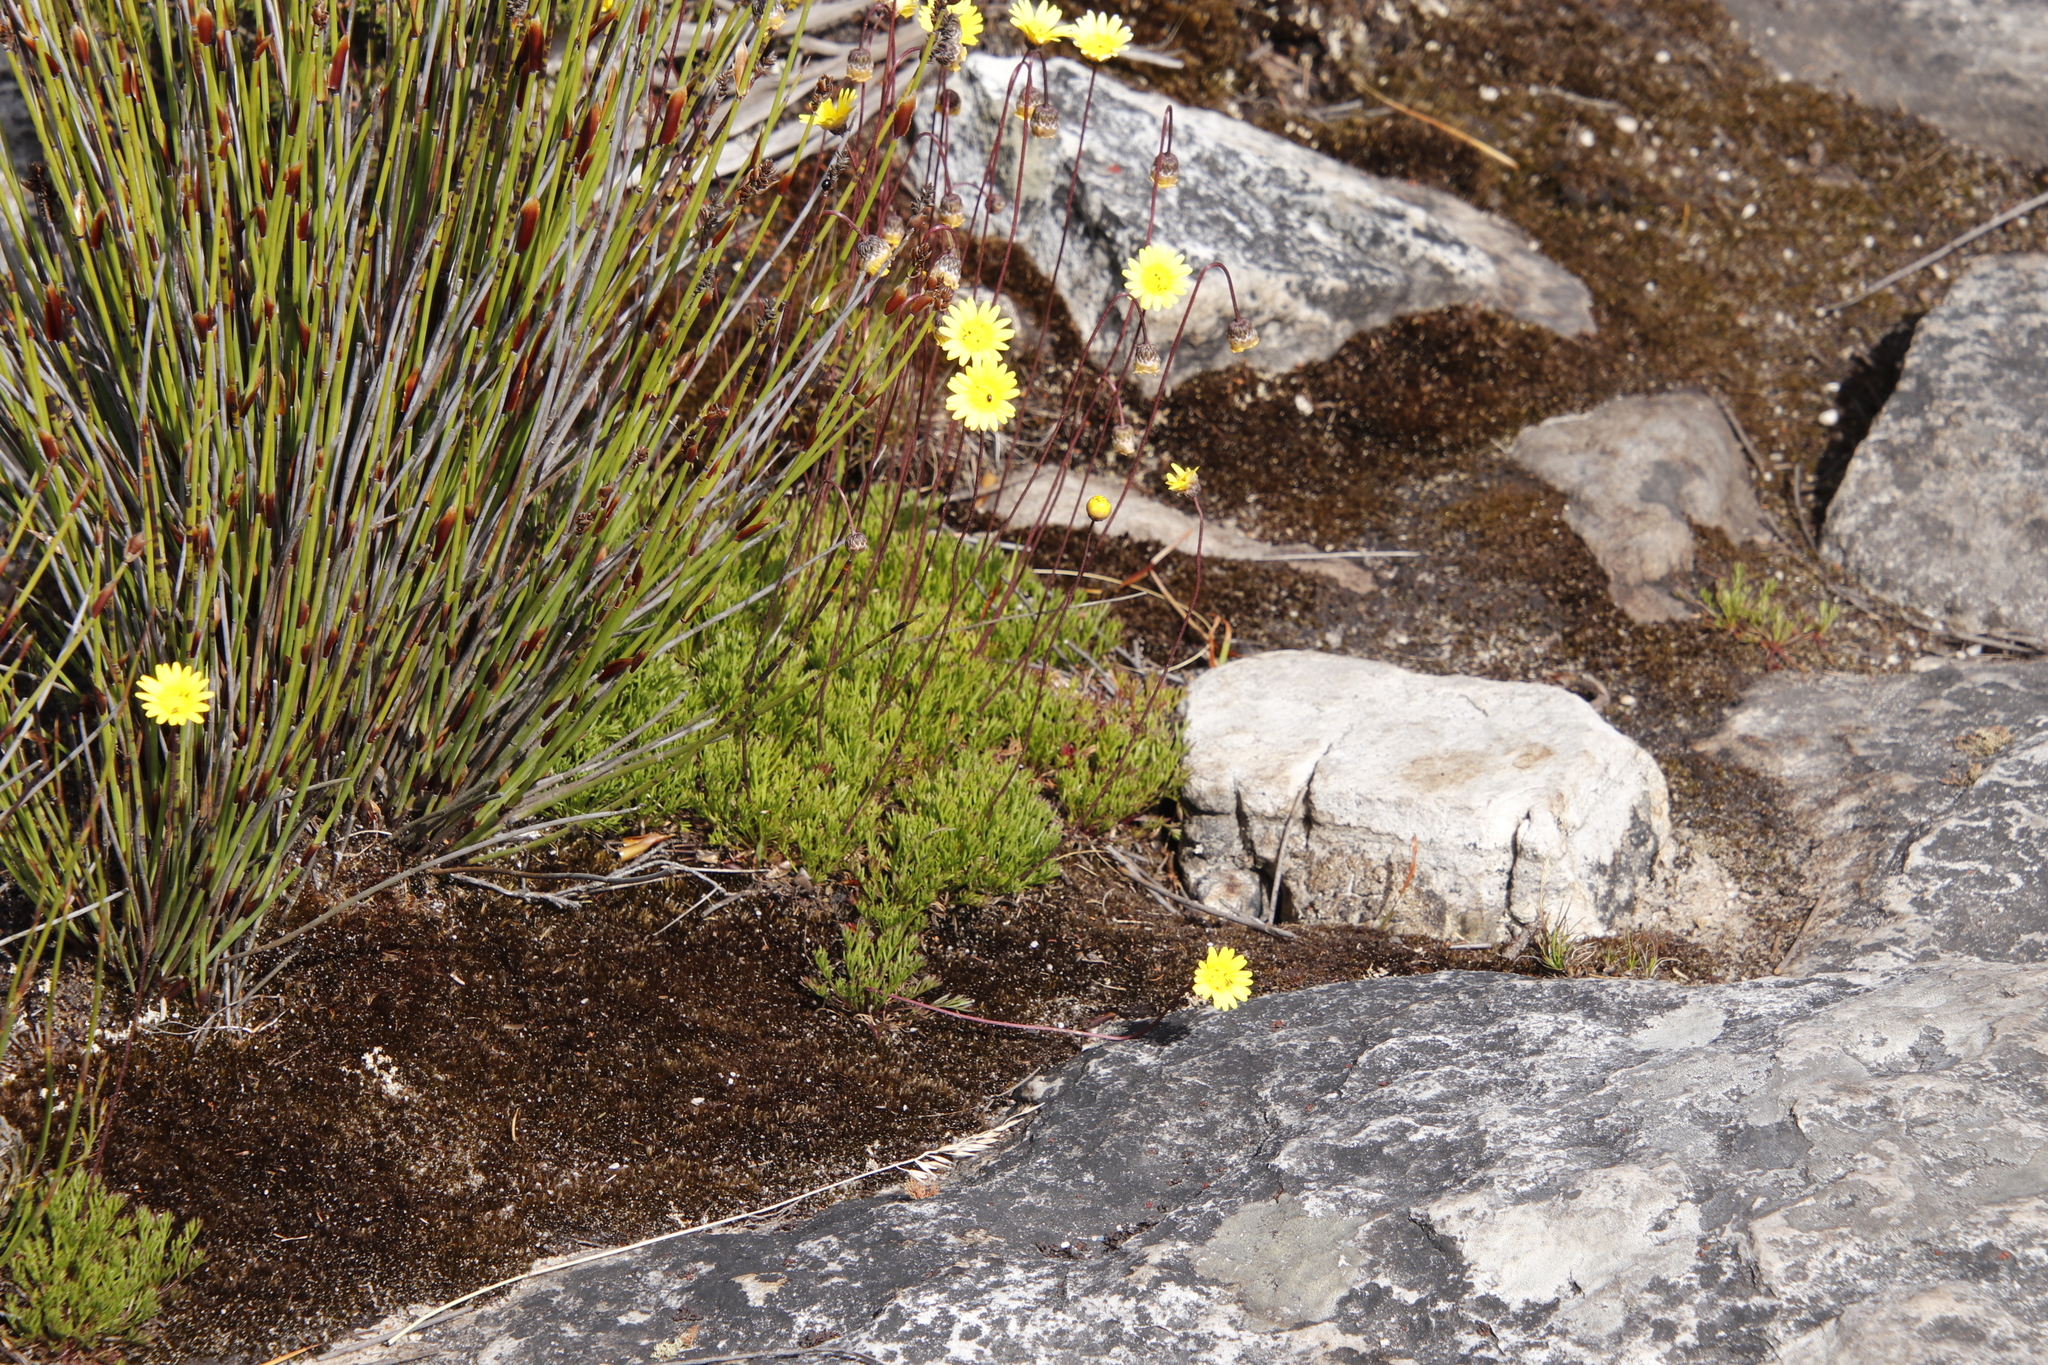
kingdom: Plantae
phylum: Tracheophyta
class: Magnoliopsida
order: Asterales
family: Asteraceae
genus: Ursinia
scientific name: Ursinia nudicaulis
